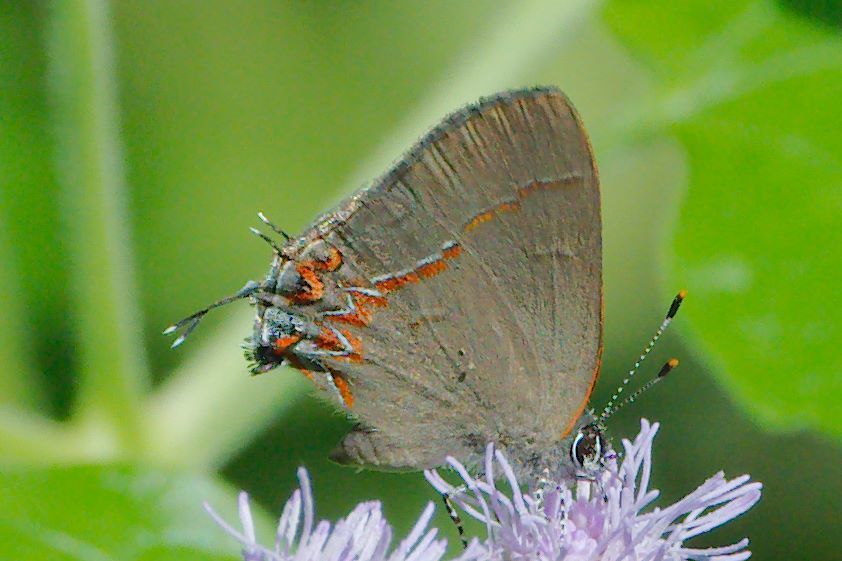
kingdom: Animalia
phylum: Arthropoda
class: Insecta
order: Lepidoptera
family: Lycaenidae
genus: Calycopis
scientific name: Calycopis isobeon
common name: Dusky-blue groundstreak
